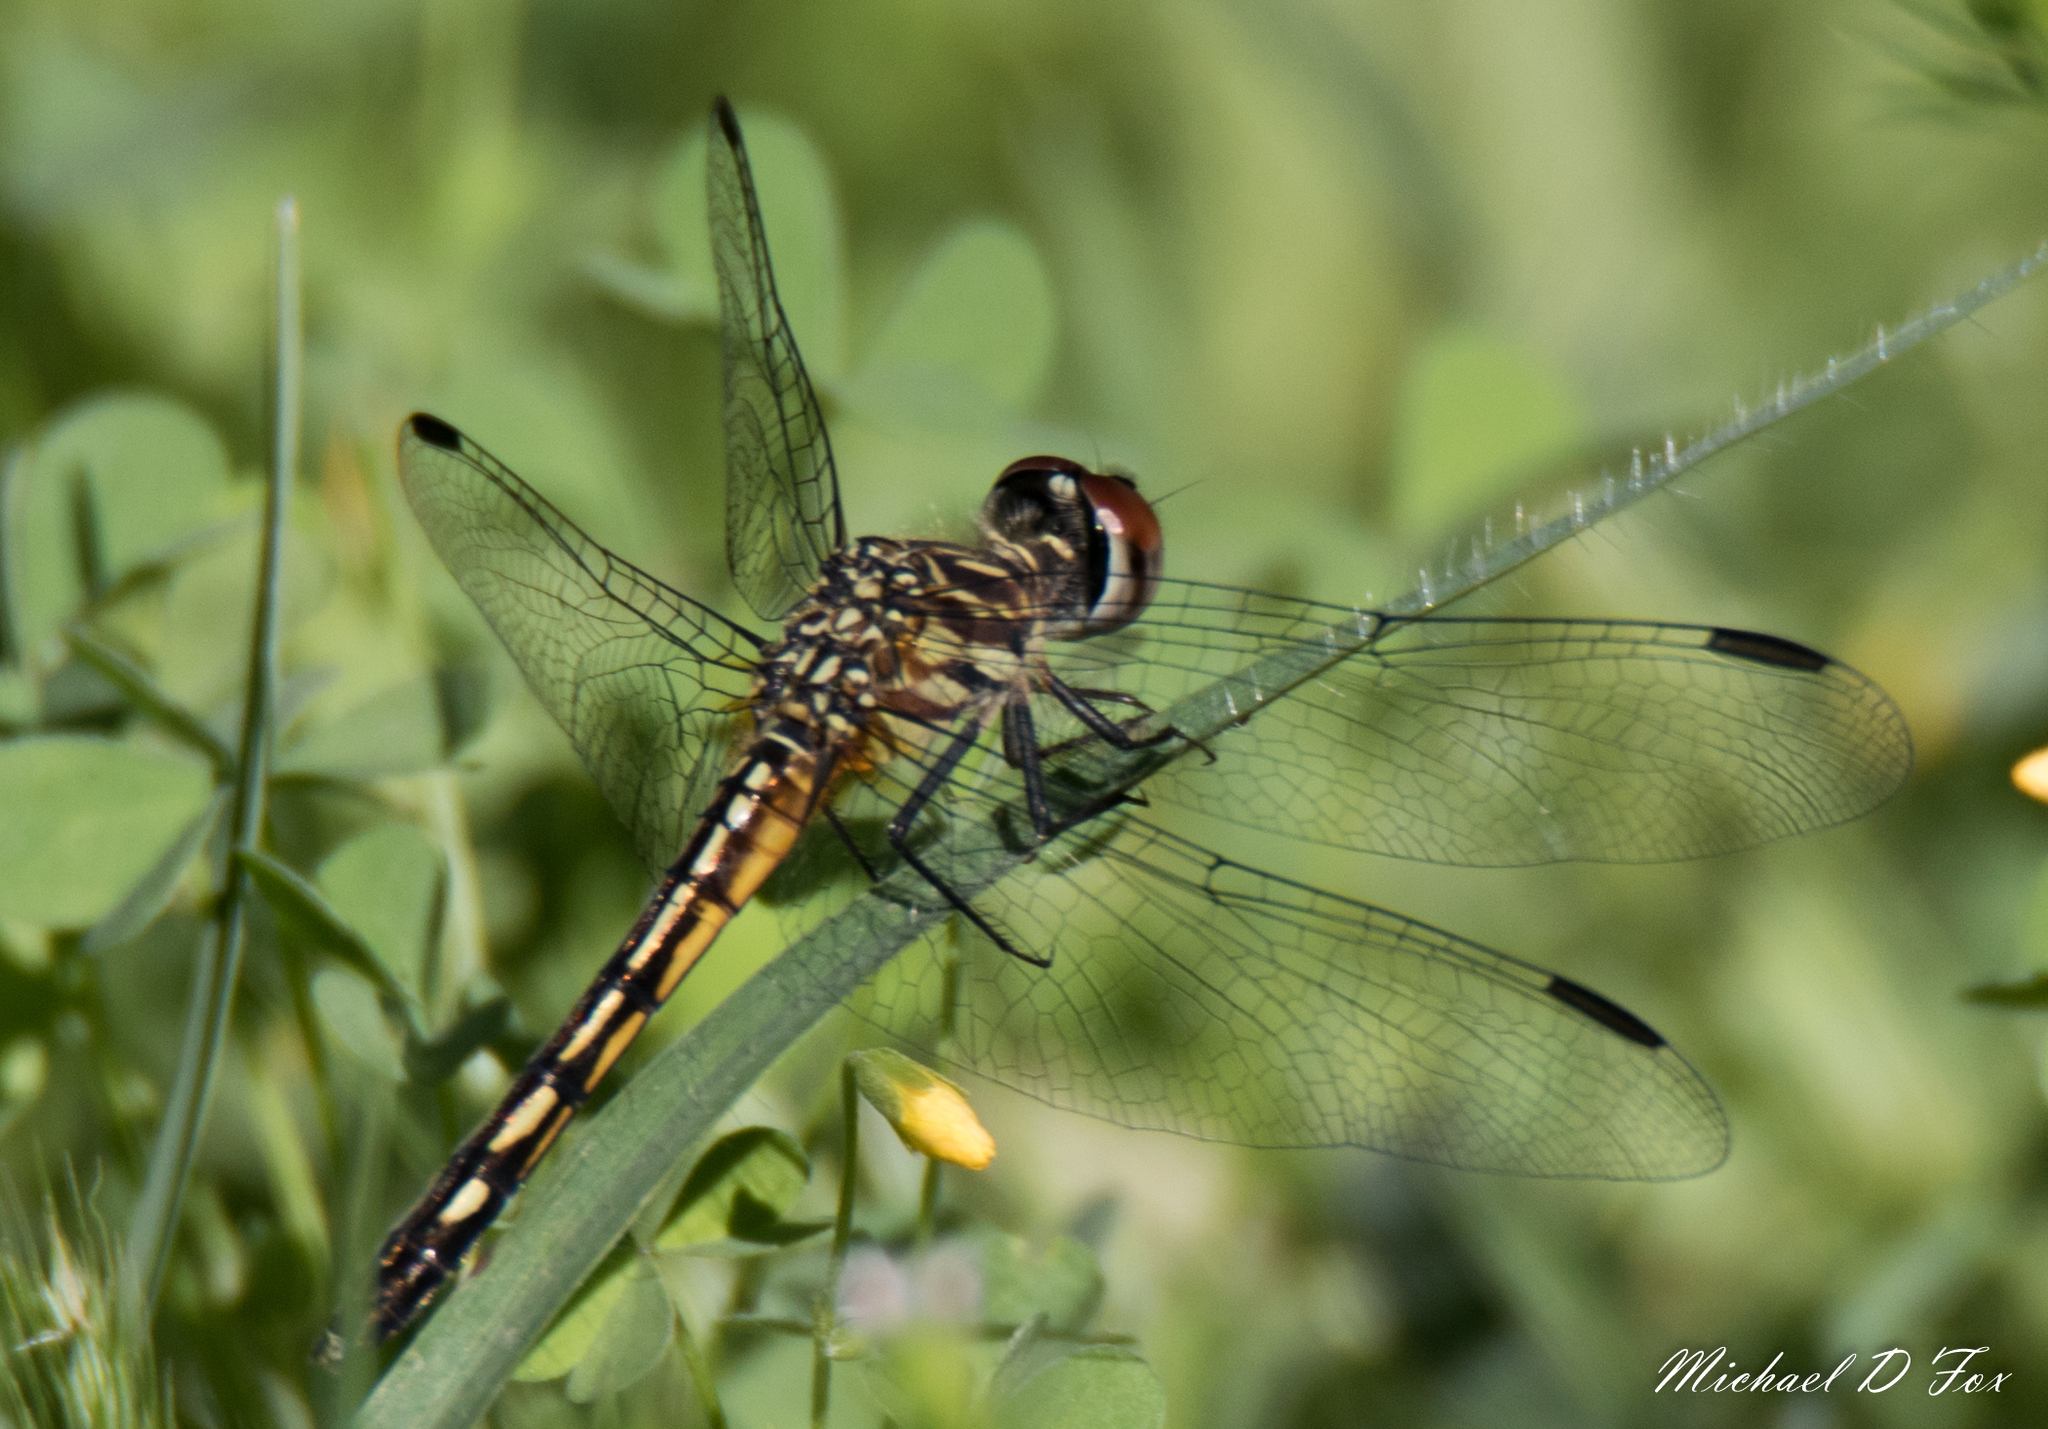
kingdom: Animalia
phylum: Arthropoda
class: Insecta
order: Odonata
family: Libellulidae
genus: Pachydiplax
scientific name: Pachydiplax longipennis
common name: Blue dasher
